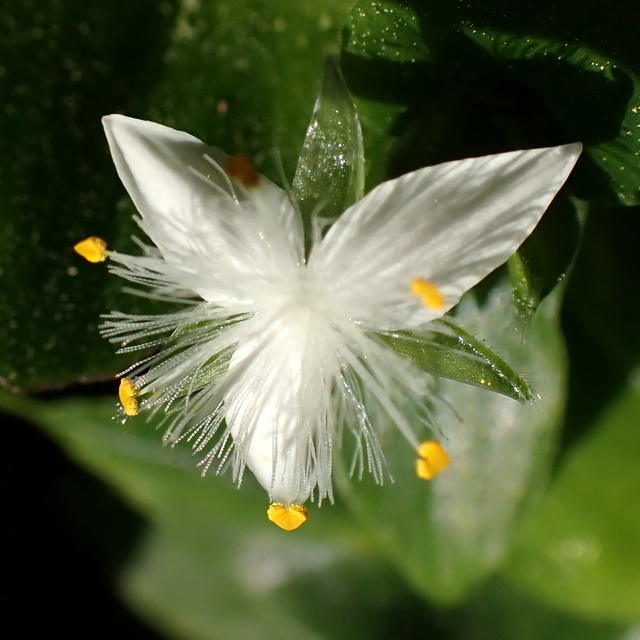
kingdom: Plantae
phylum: Tracheophyta
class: Liliopsida
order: Commelinales
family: Commelinaceae
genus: Tradescantia
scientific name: Tradescantia fluminensis
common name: Wandering-jew
